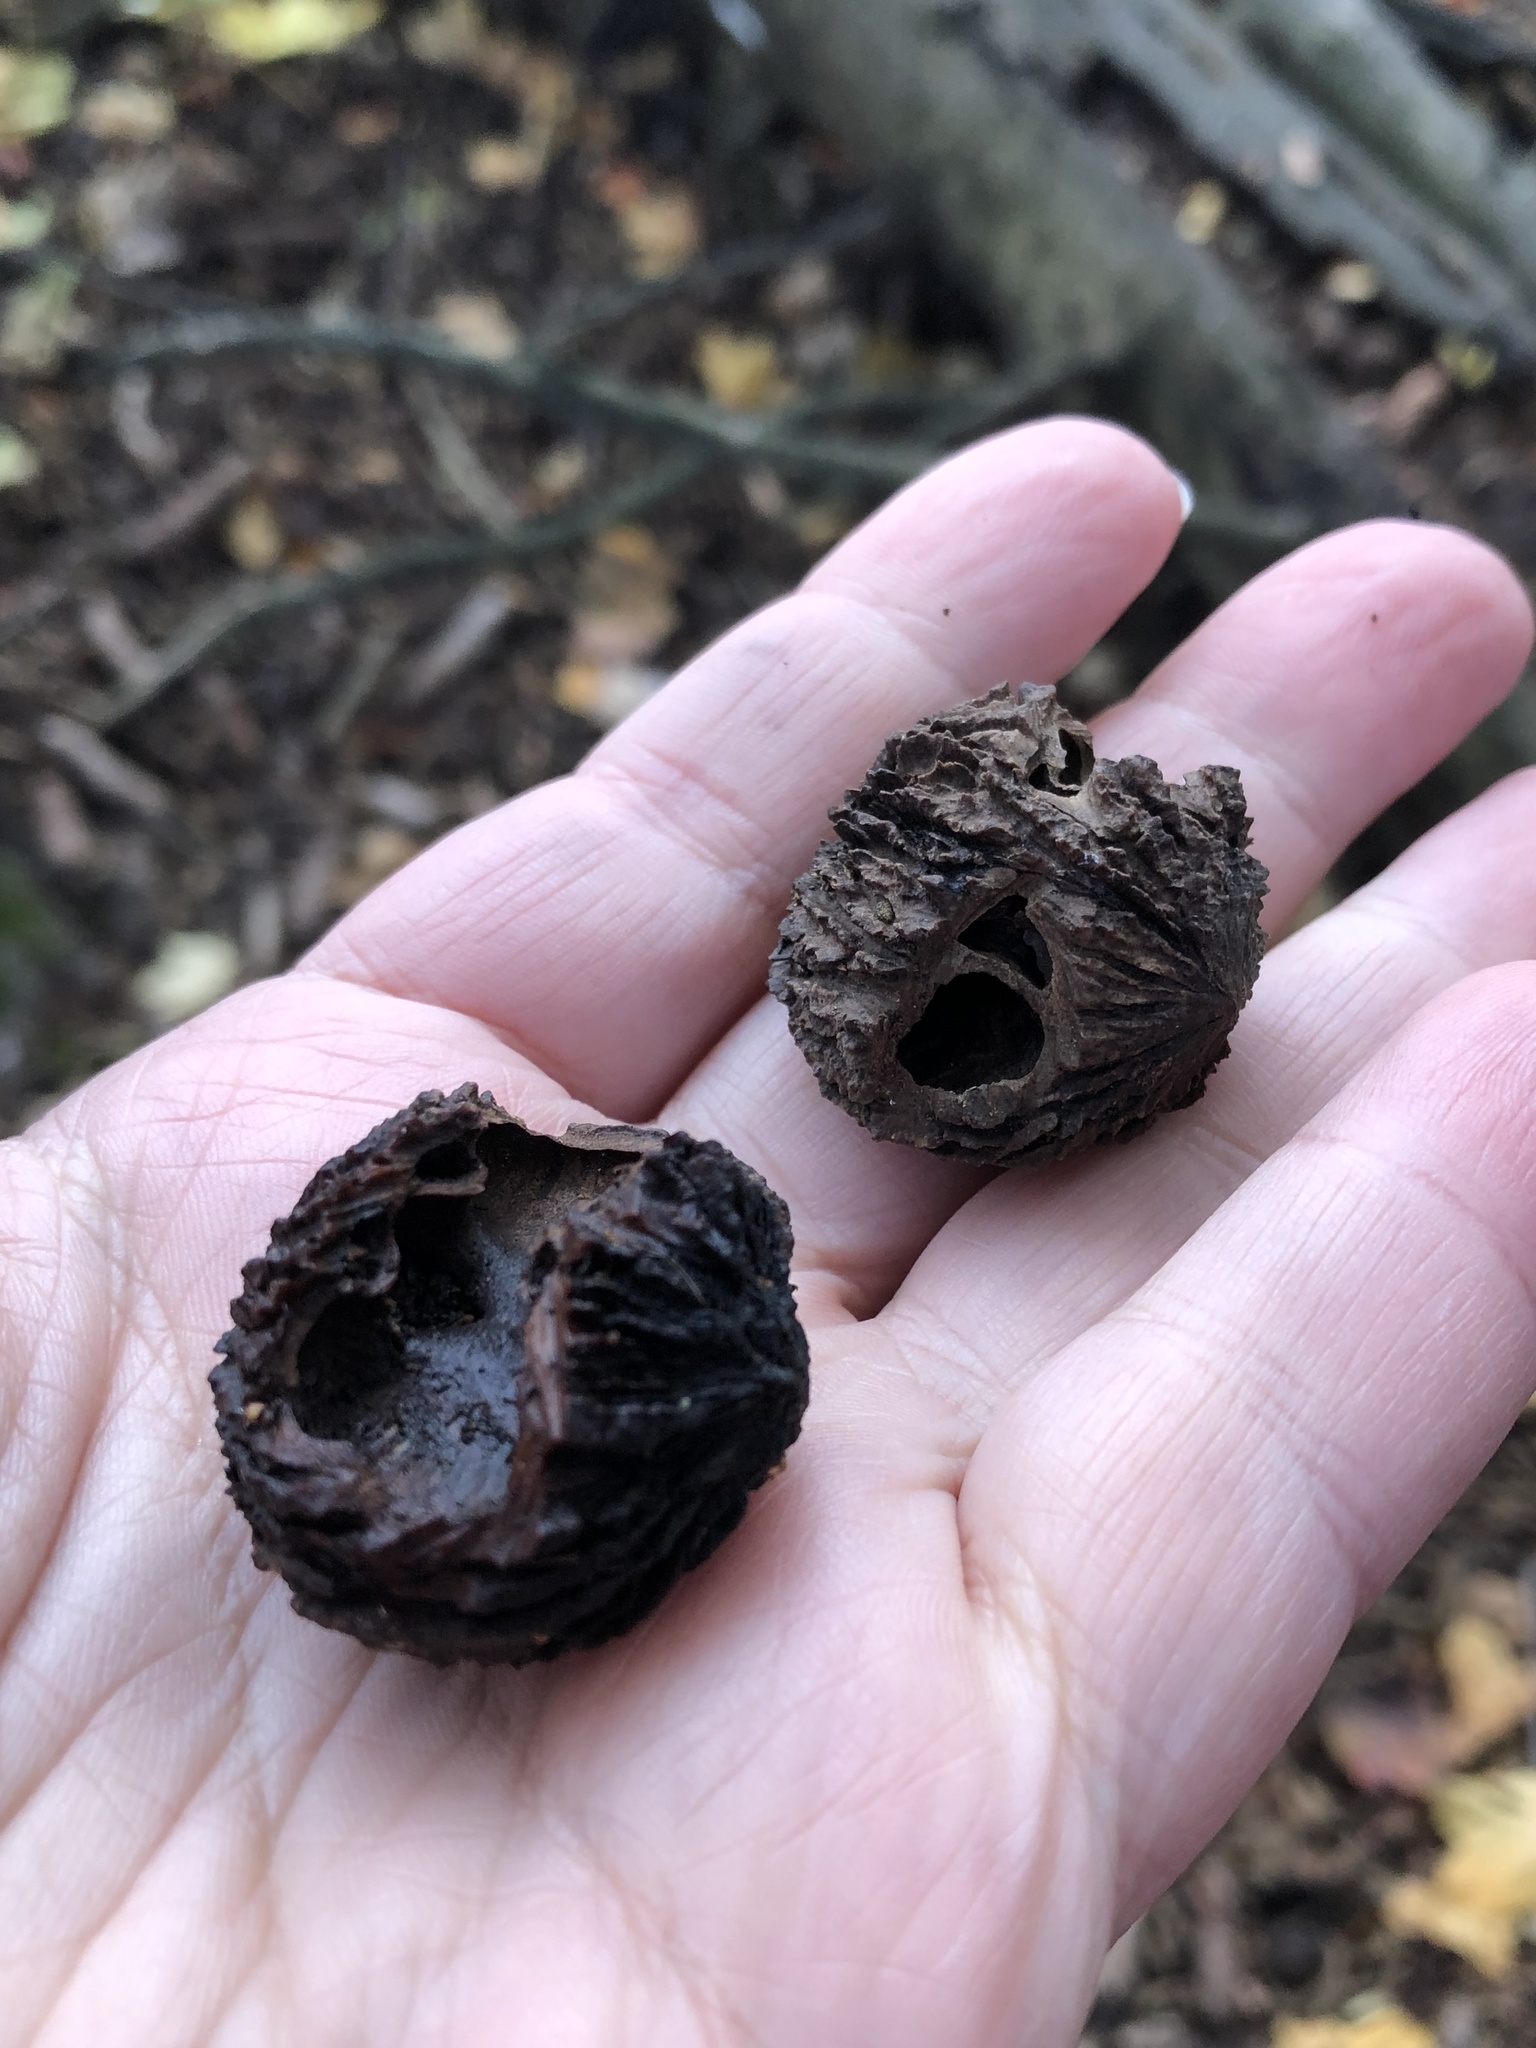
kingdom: Plantae
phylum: Tracheophyta
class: Magnoliopsida
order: Fagales
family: Juglandaceae
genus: Juglans
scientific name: Juglans nigra
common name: Black walnut
